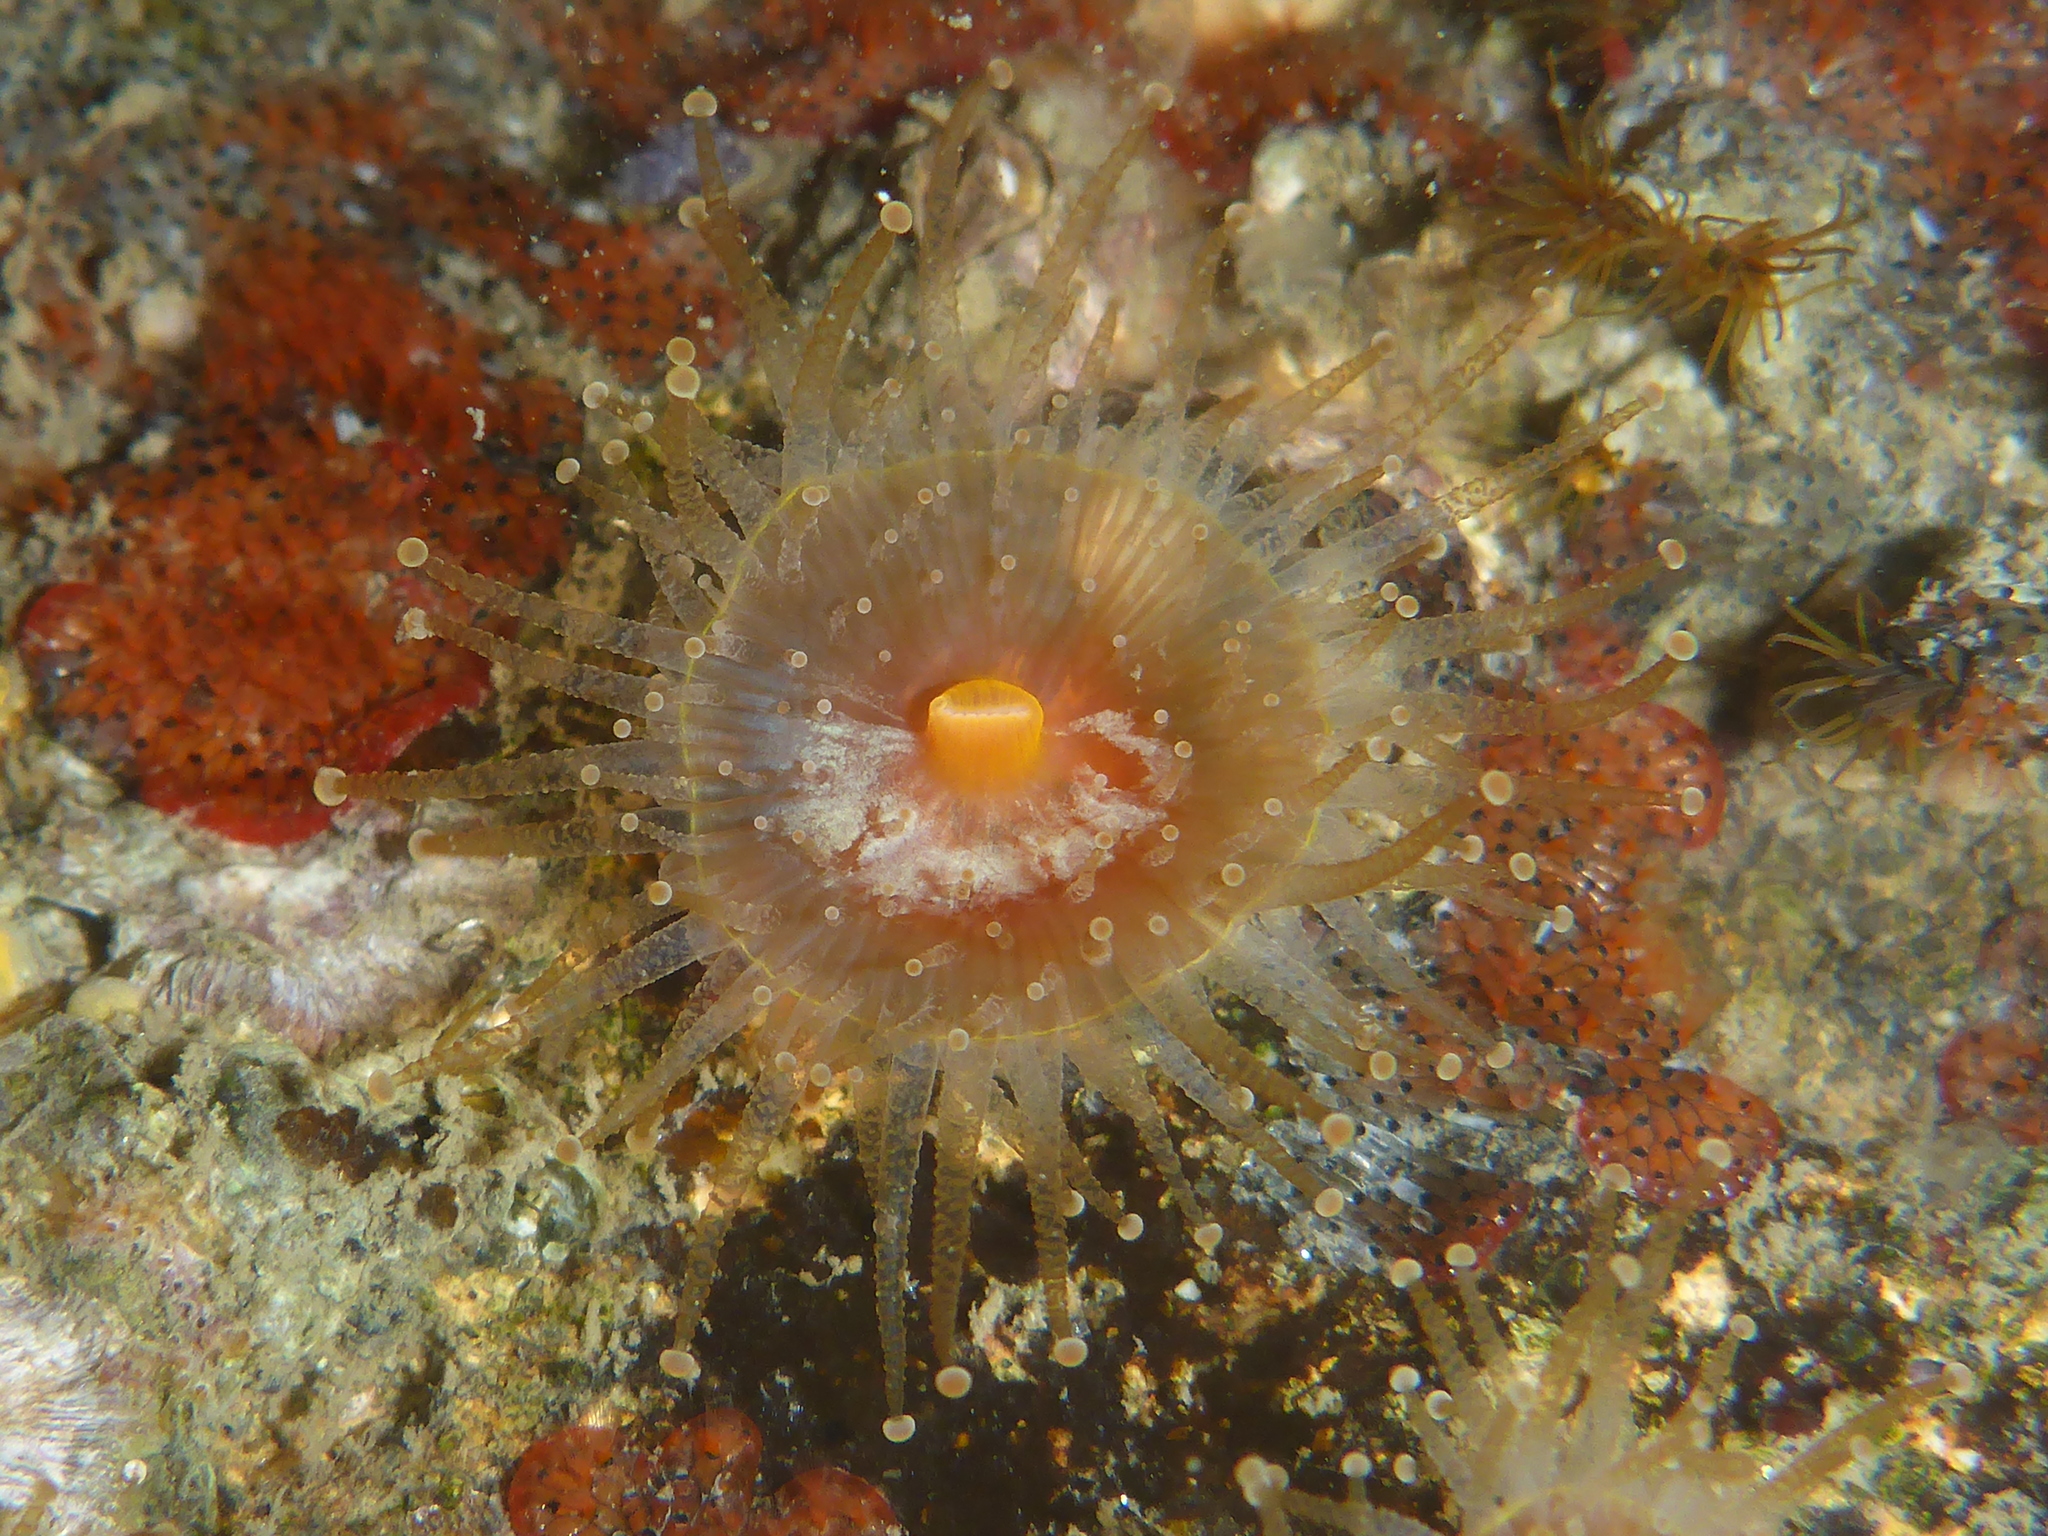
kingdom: Animalia
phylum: Cnidaria
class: Anthozoa
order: Corallimorpharia
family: Corallimorphidae
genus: Corynactis
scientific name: Corynactis californica
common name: Strawberry corallimorpharian
